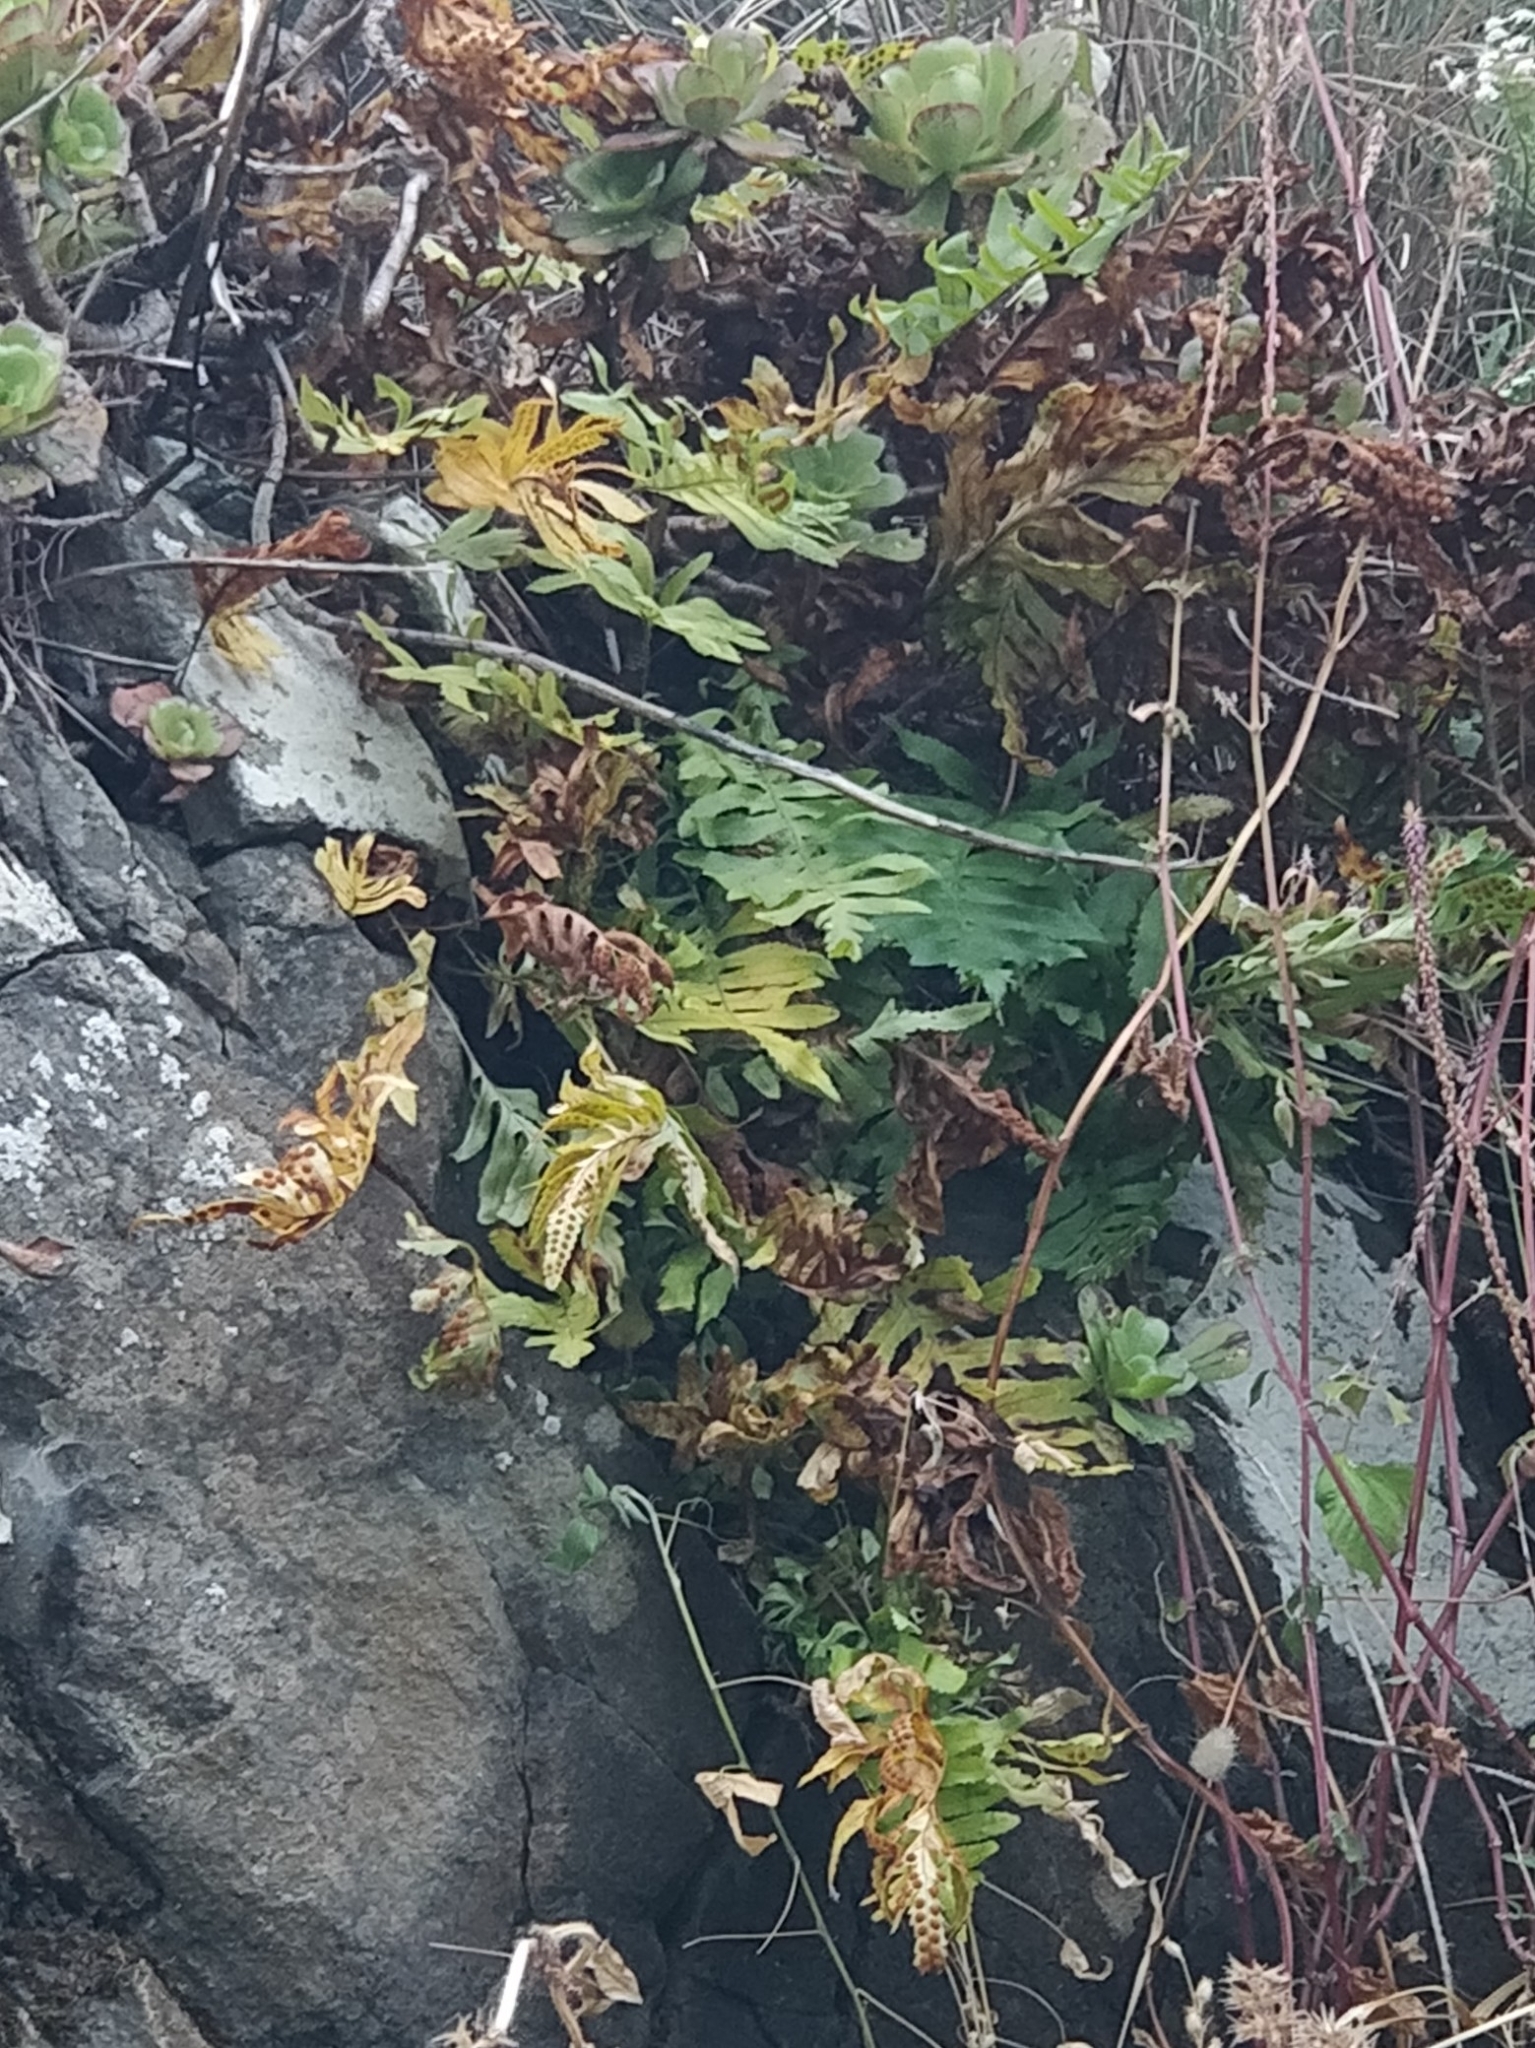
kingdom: Plantae
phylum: Tracheophyta
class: Polypodiopsida
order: Polypodiales
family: Polypodiaceae
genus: Polypodium
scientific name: Polypodium macaronesicum
